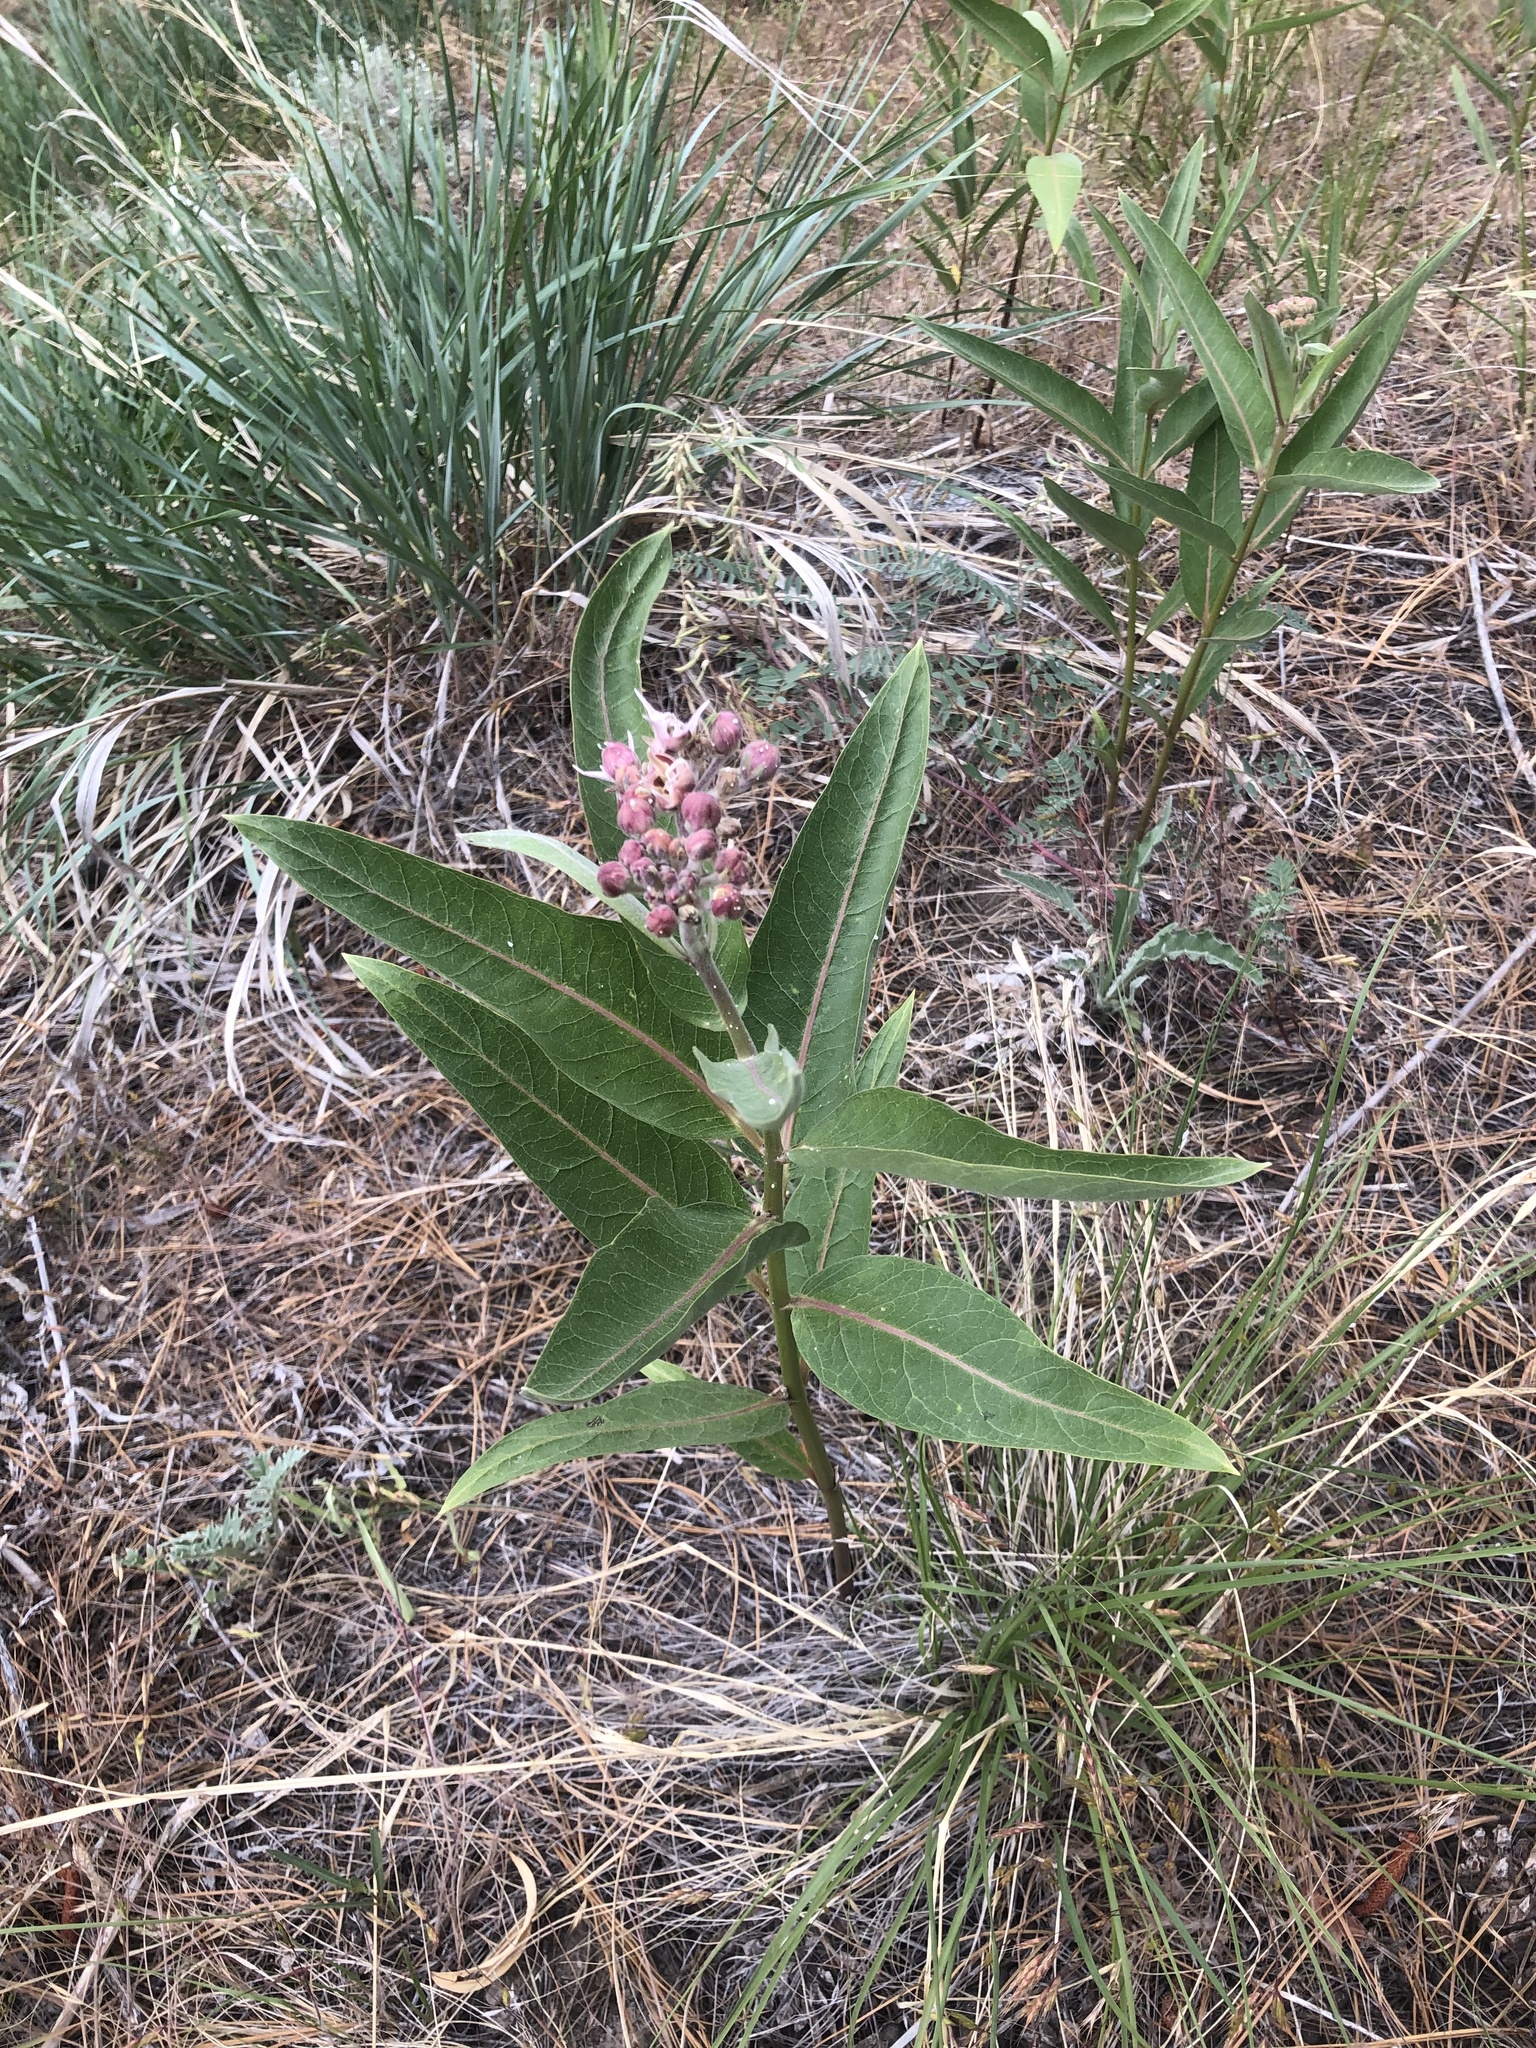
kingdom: Plantae
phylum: Tracheophyta
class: Magnoliopsida
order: Gentianales
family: Apocynaceae
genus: Asclepias
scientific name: Asclepias speciosa
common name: Showy milkweed
